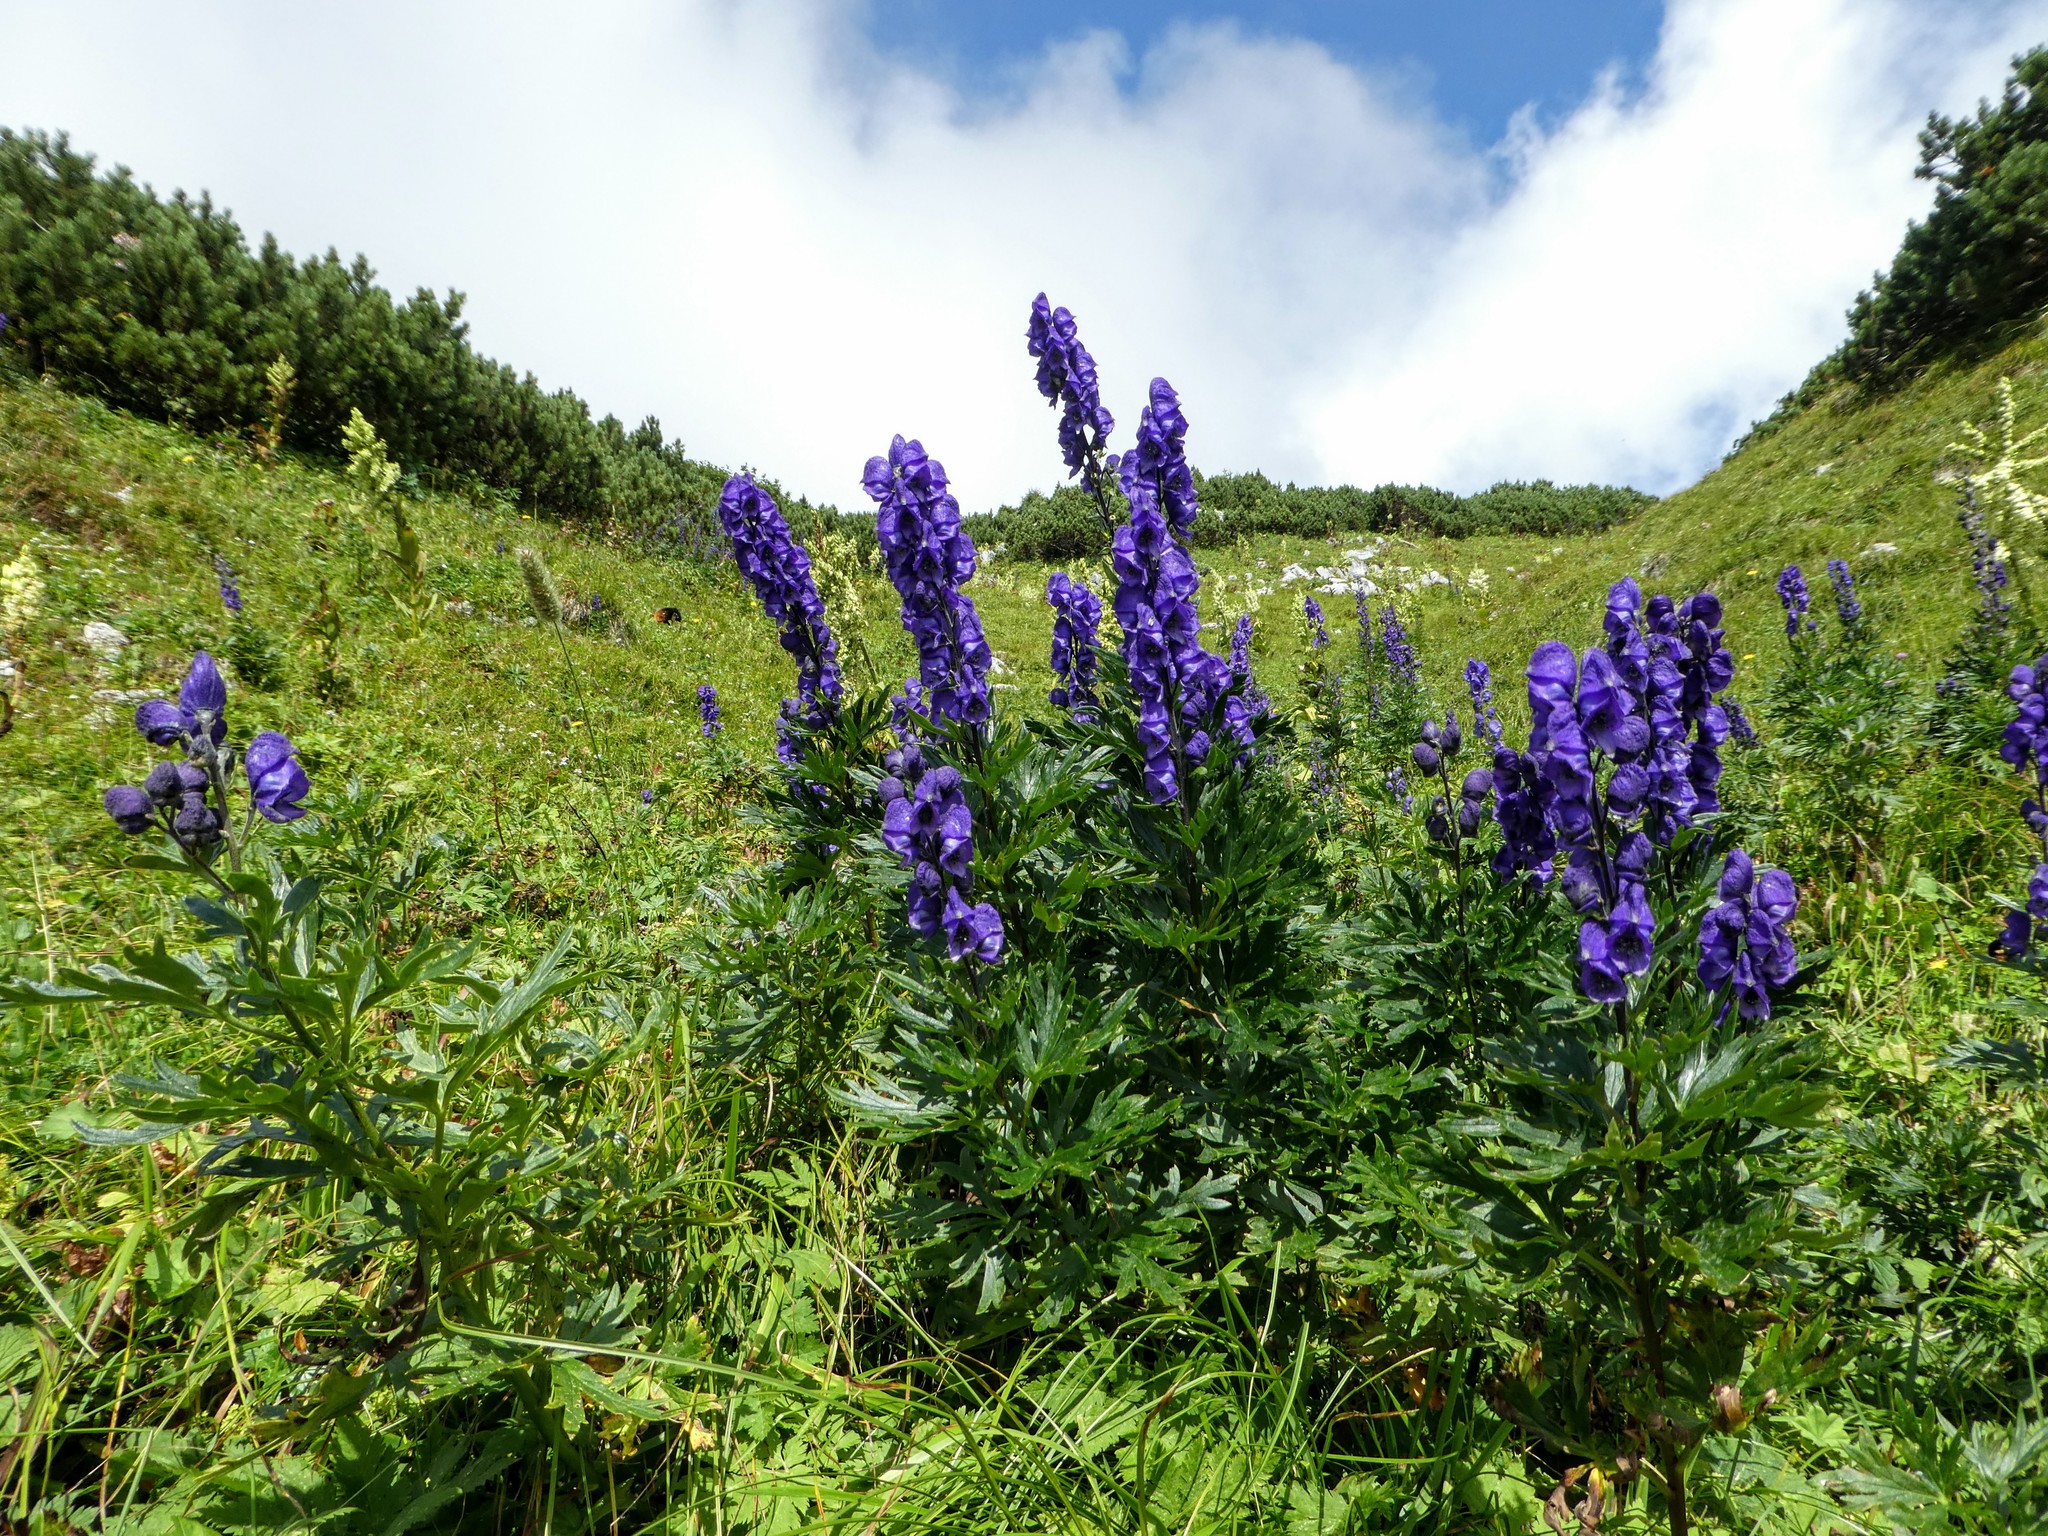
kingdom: Plantae
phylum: Tracheophyta
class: Magnoliopsida
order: Ranunculales
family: Ranunculaceae
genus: Aconitum
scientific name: Aconitum napellus
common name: Garden monkshood
